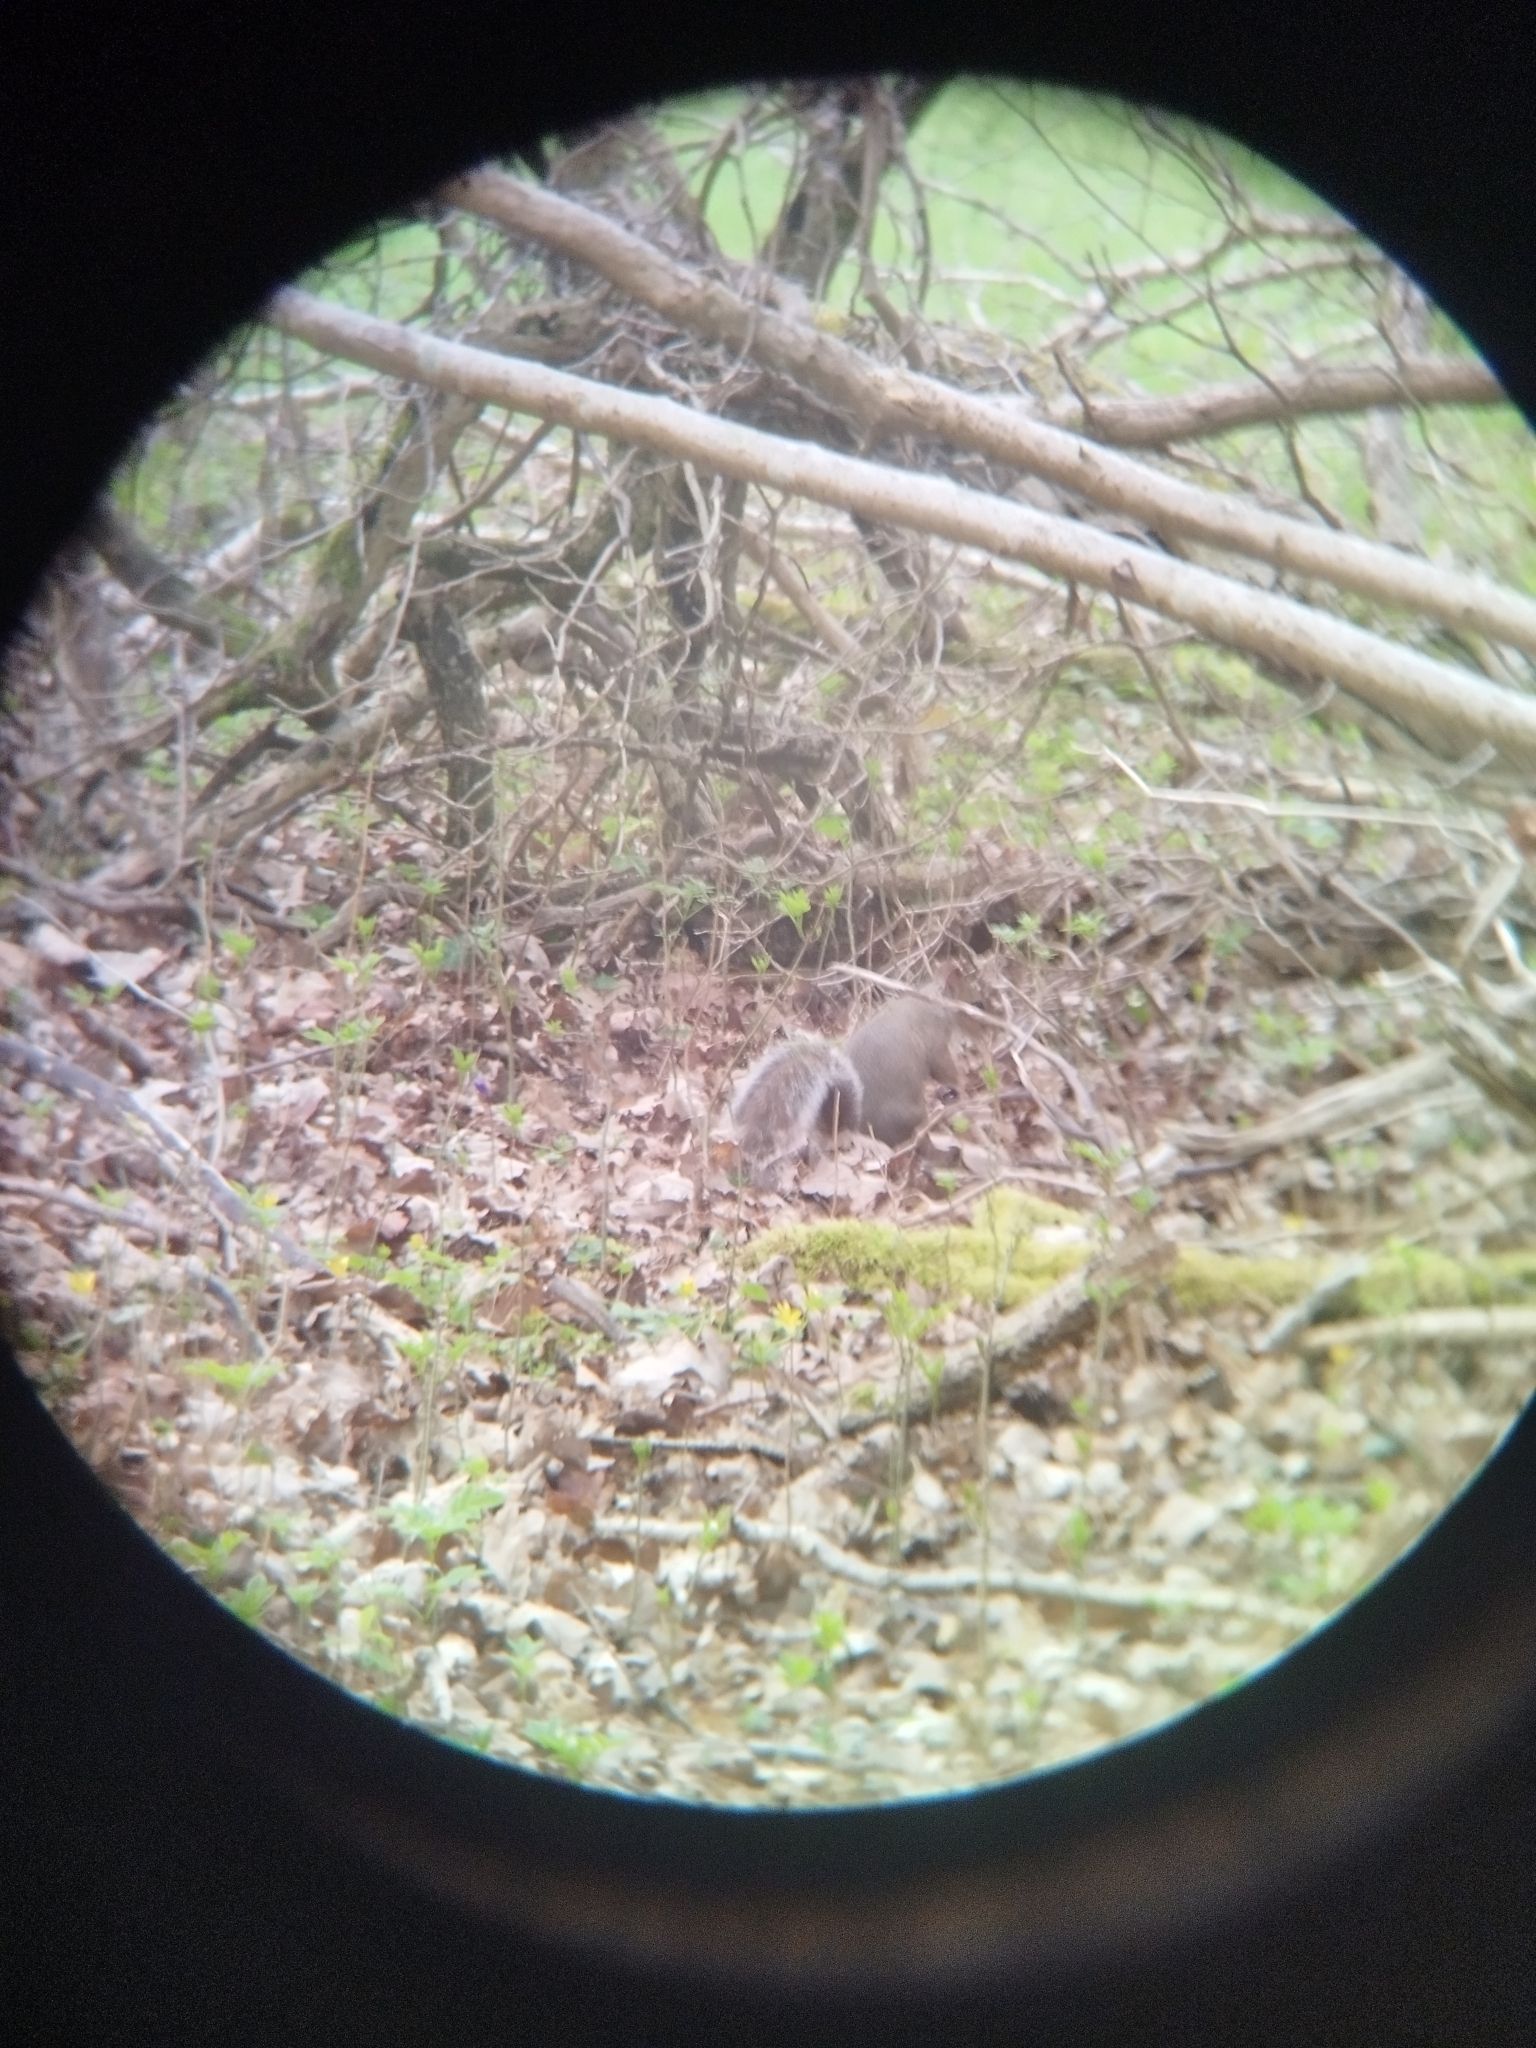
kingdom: Animalia
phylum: Chordata
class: Mammalia
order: Rodentia
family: Sciuridae
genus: Sciurus
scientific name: Sciurus carolinensis
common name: Eastern gray squirrel
